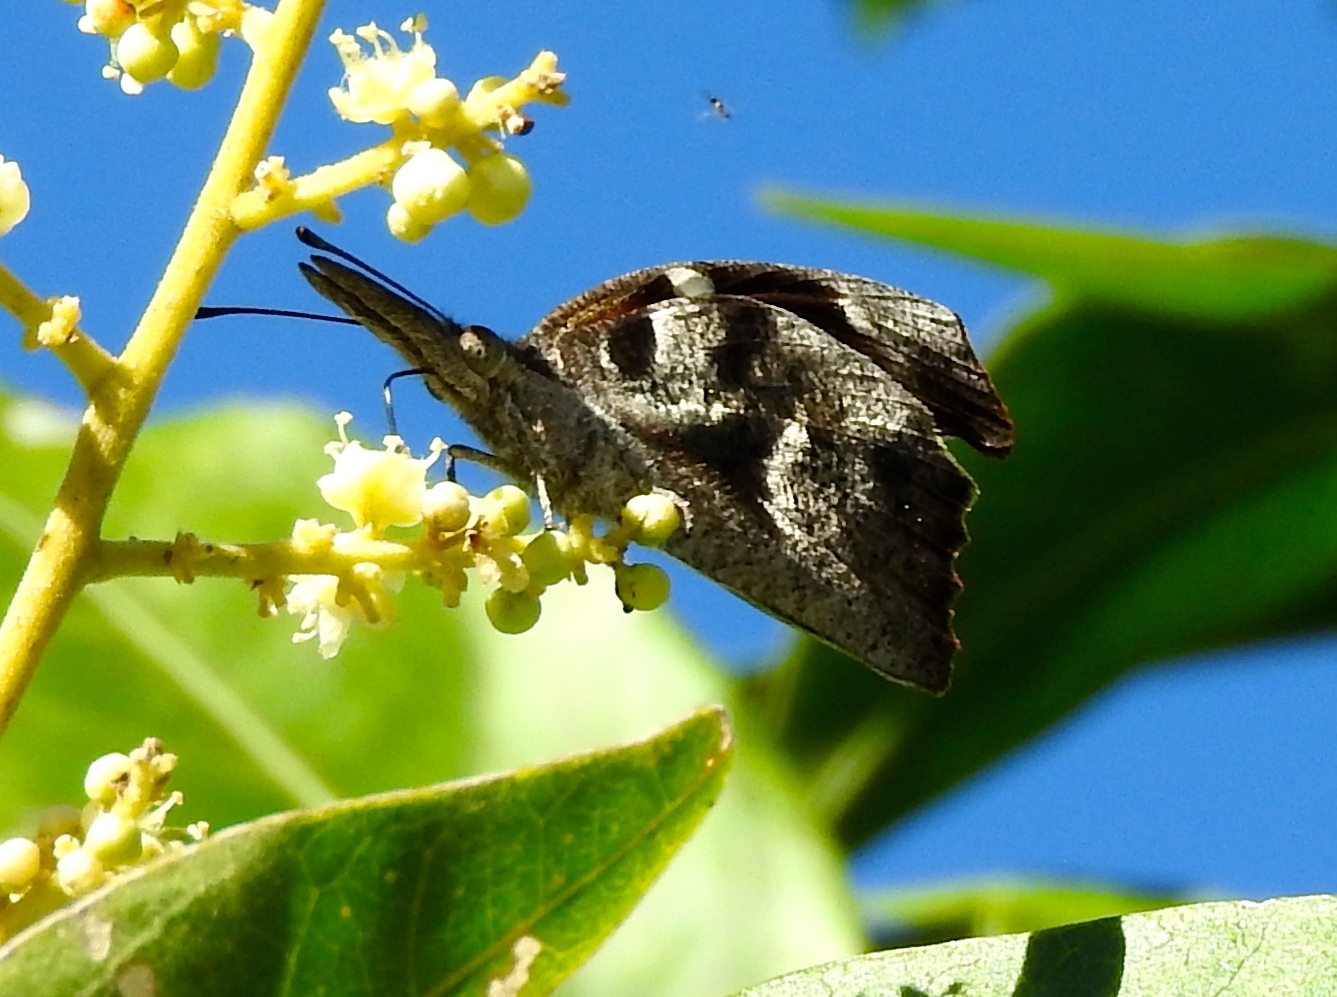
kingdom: Animalia
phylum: Arthropoda
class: Insecta
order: Lepidoptera
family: Nymphalidae
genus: Libytheana
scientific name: Libytheana carinenta
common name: American snout
